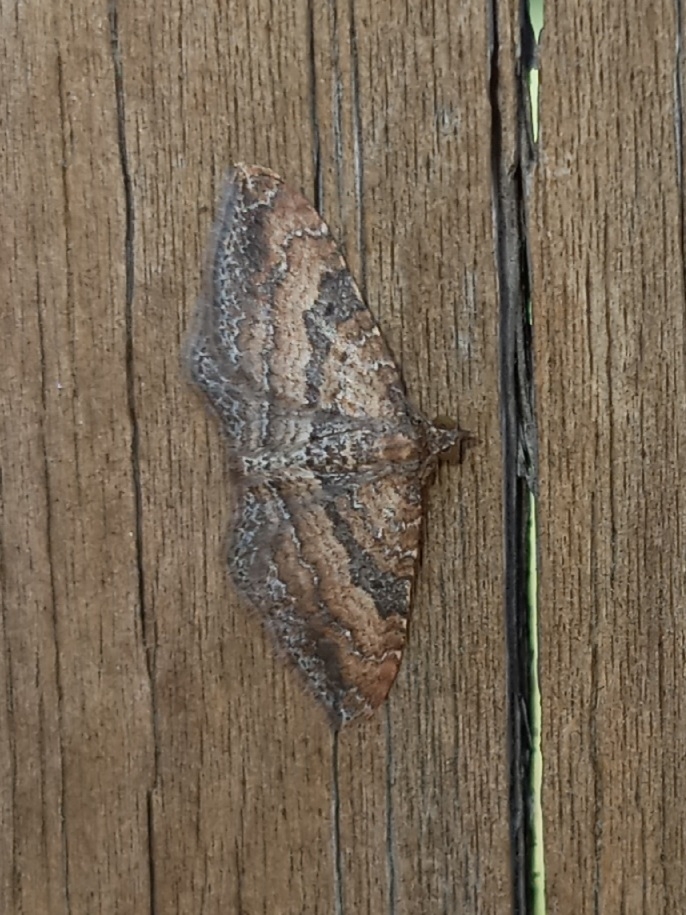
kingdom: Animalia
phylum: Arthropoda
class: Insecta
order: Lepidoptera
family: Geometridae
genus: Orthonama
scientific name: Orthonama obstipata
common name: The gem
